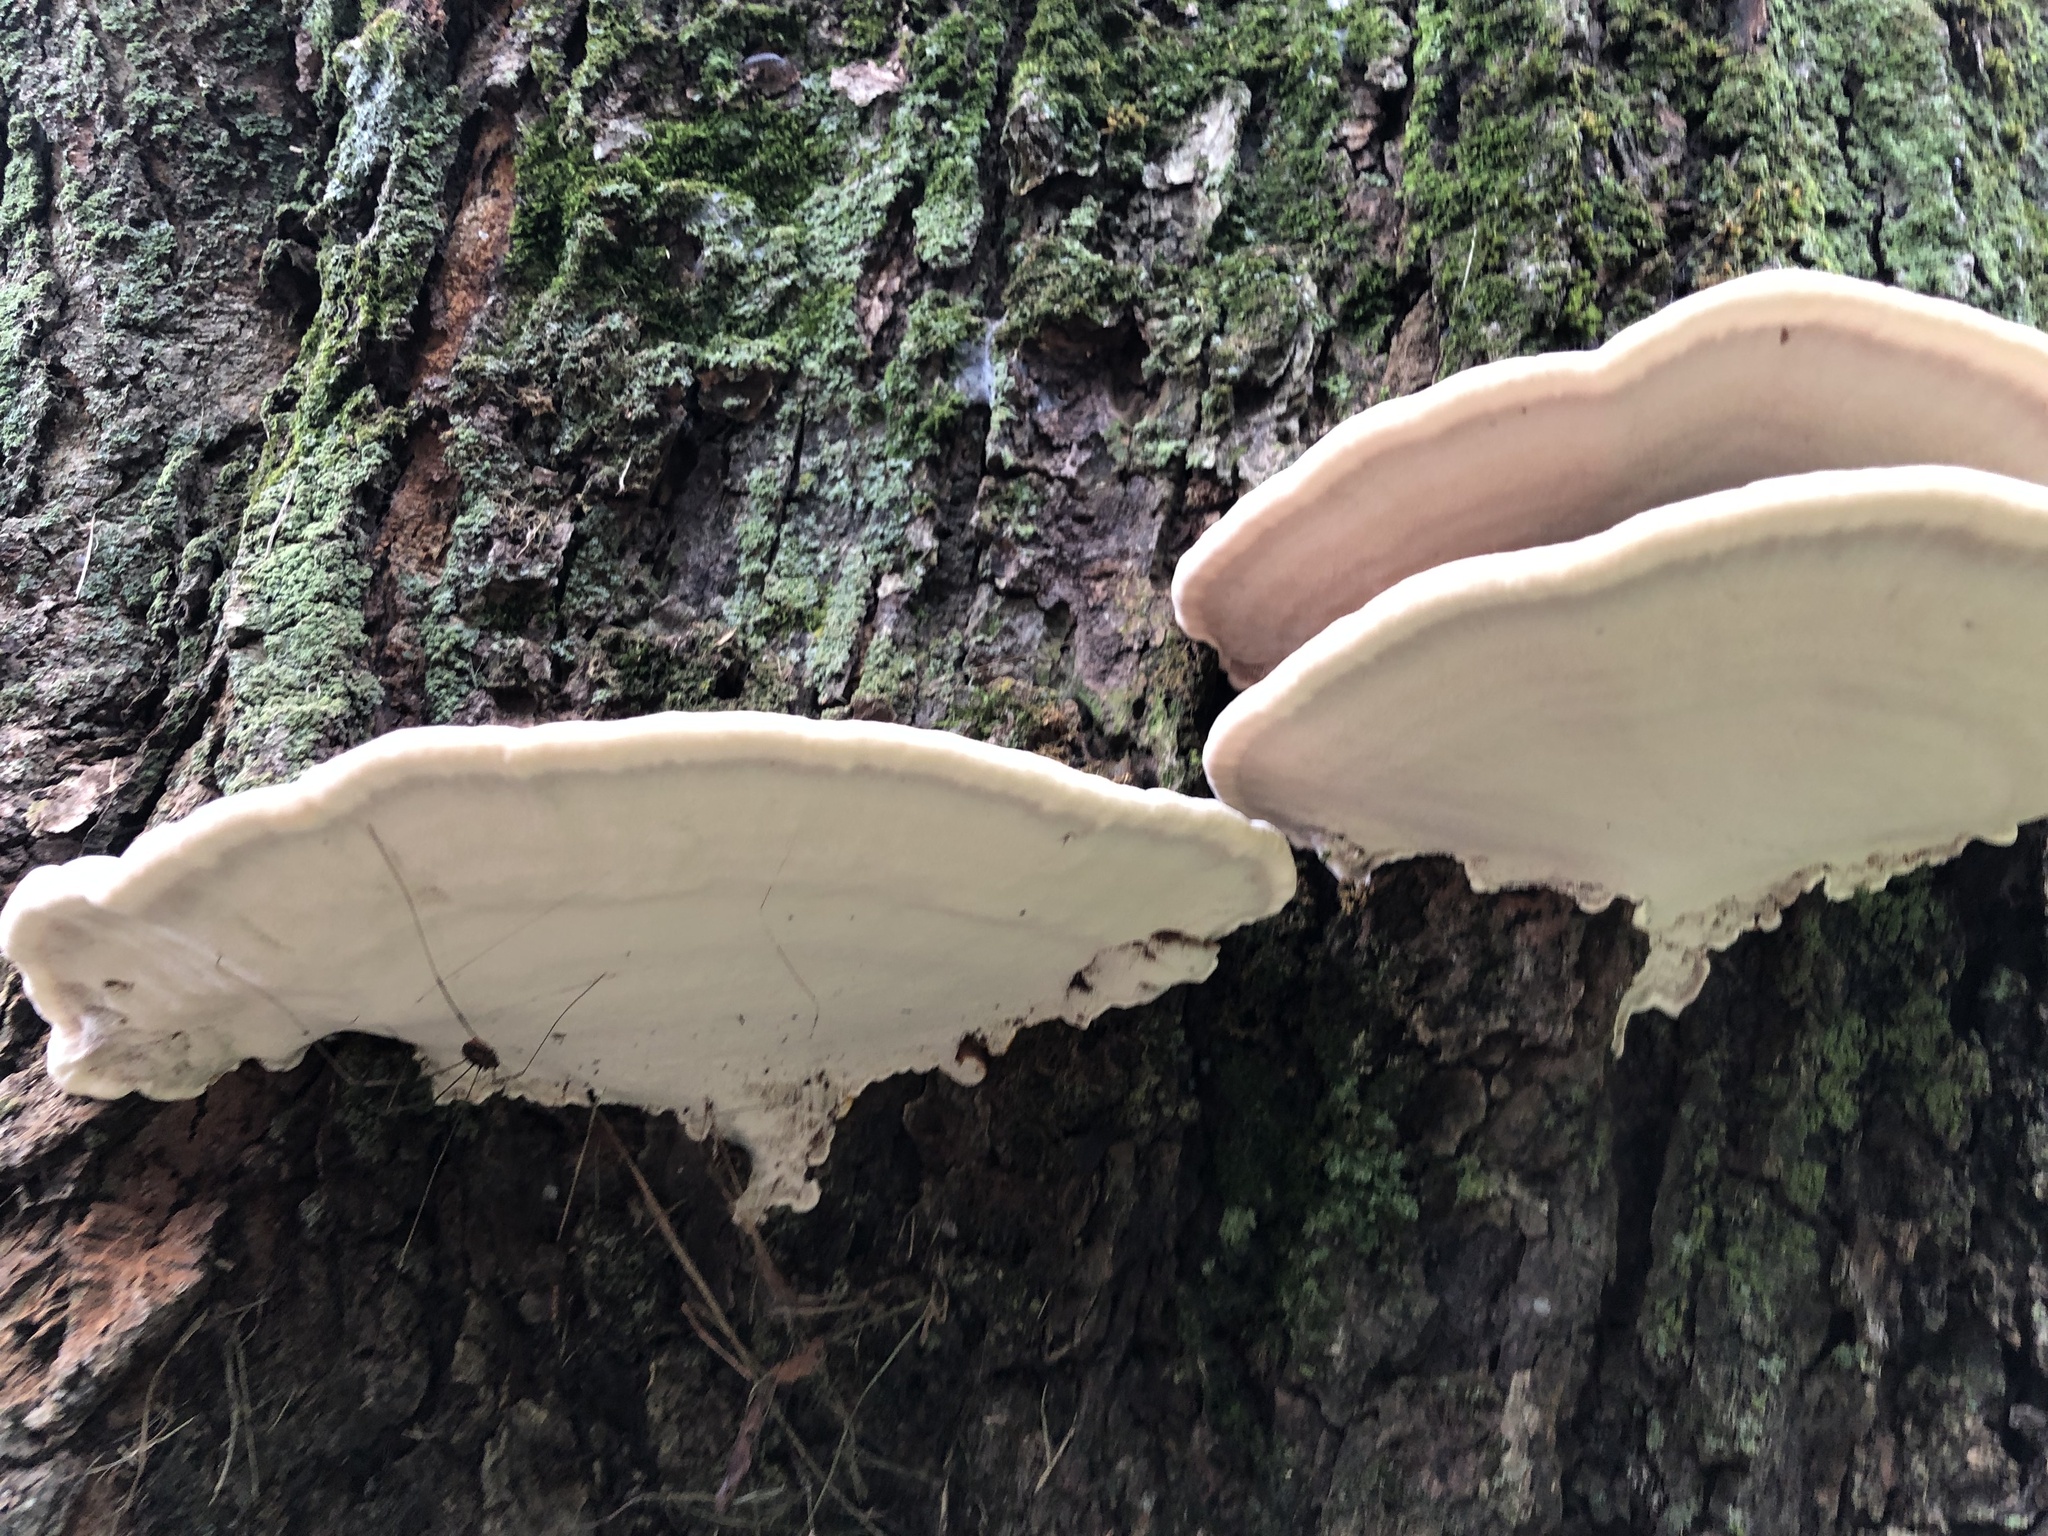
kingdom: Fungi
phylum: Basidiomycota
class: Agaricomycetes
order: Polyporales
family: Polyporaceae
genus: Ganoderma
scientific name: Ganoderma tsugae
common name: Hemlock varnish shelf
